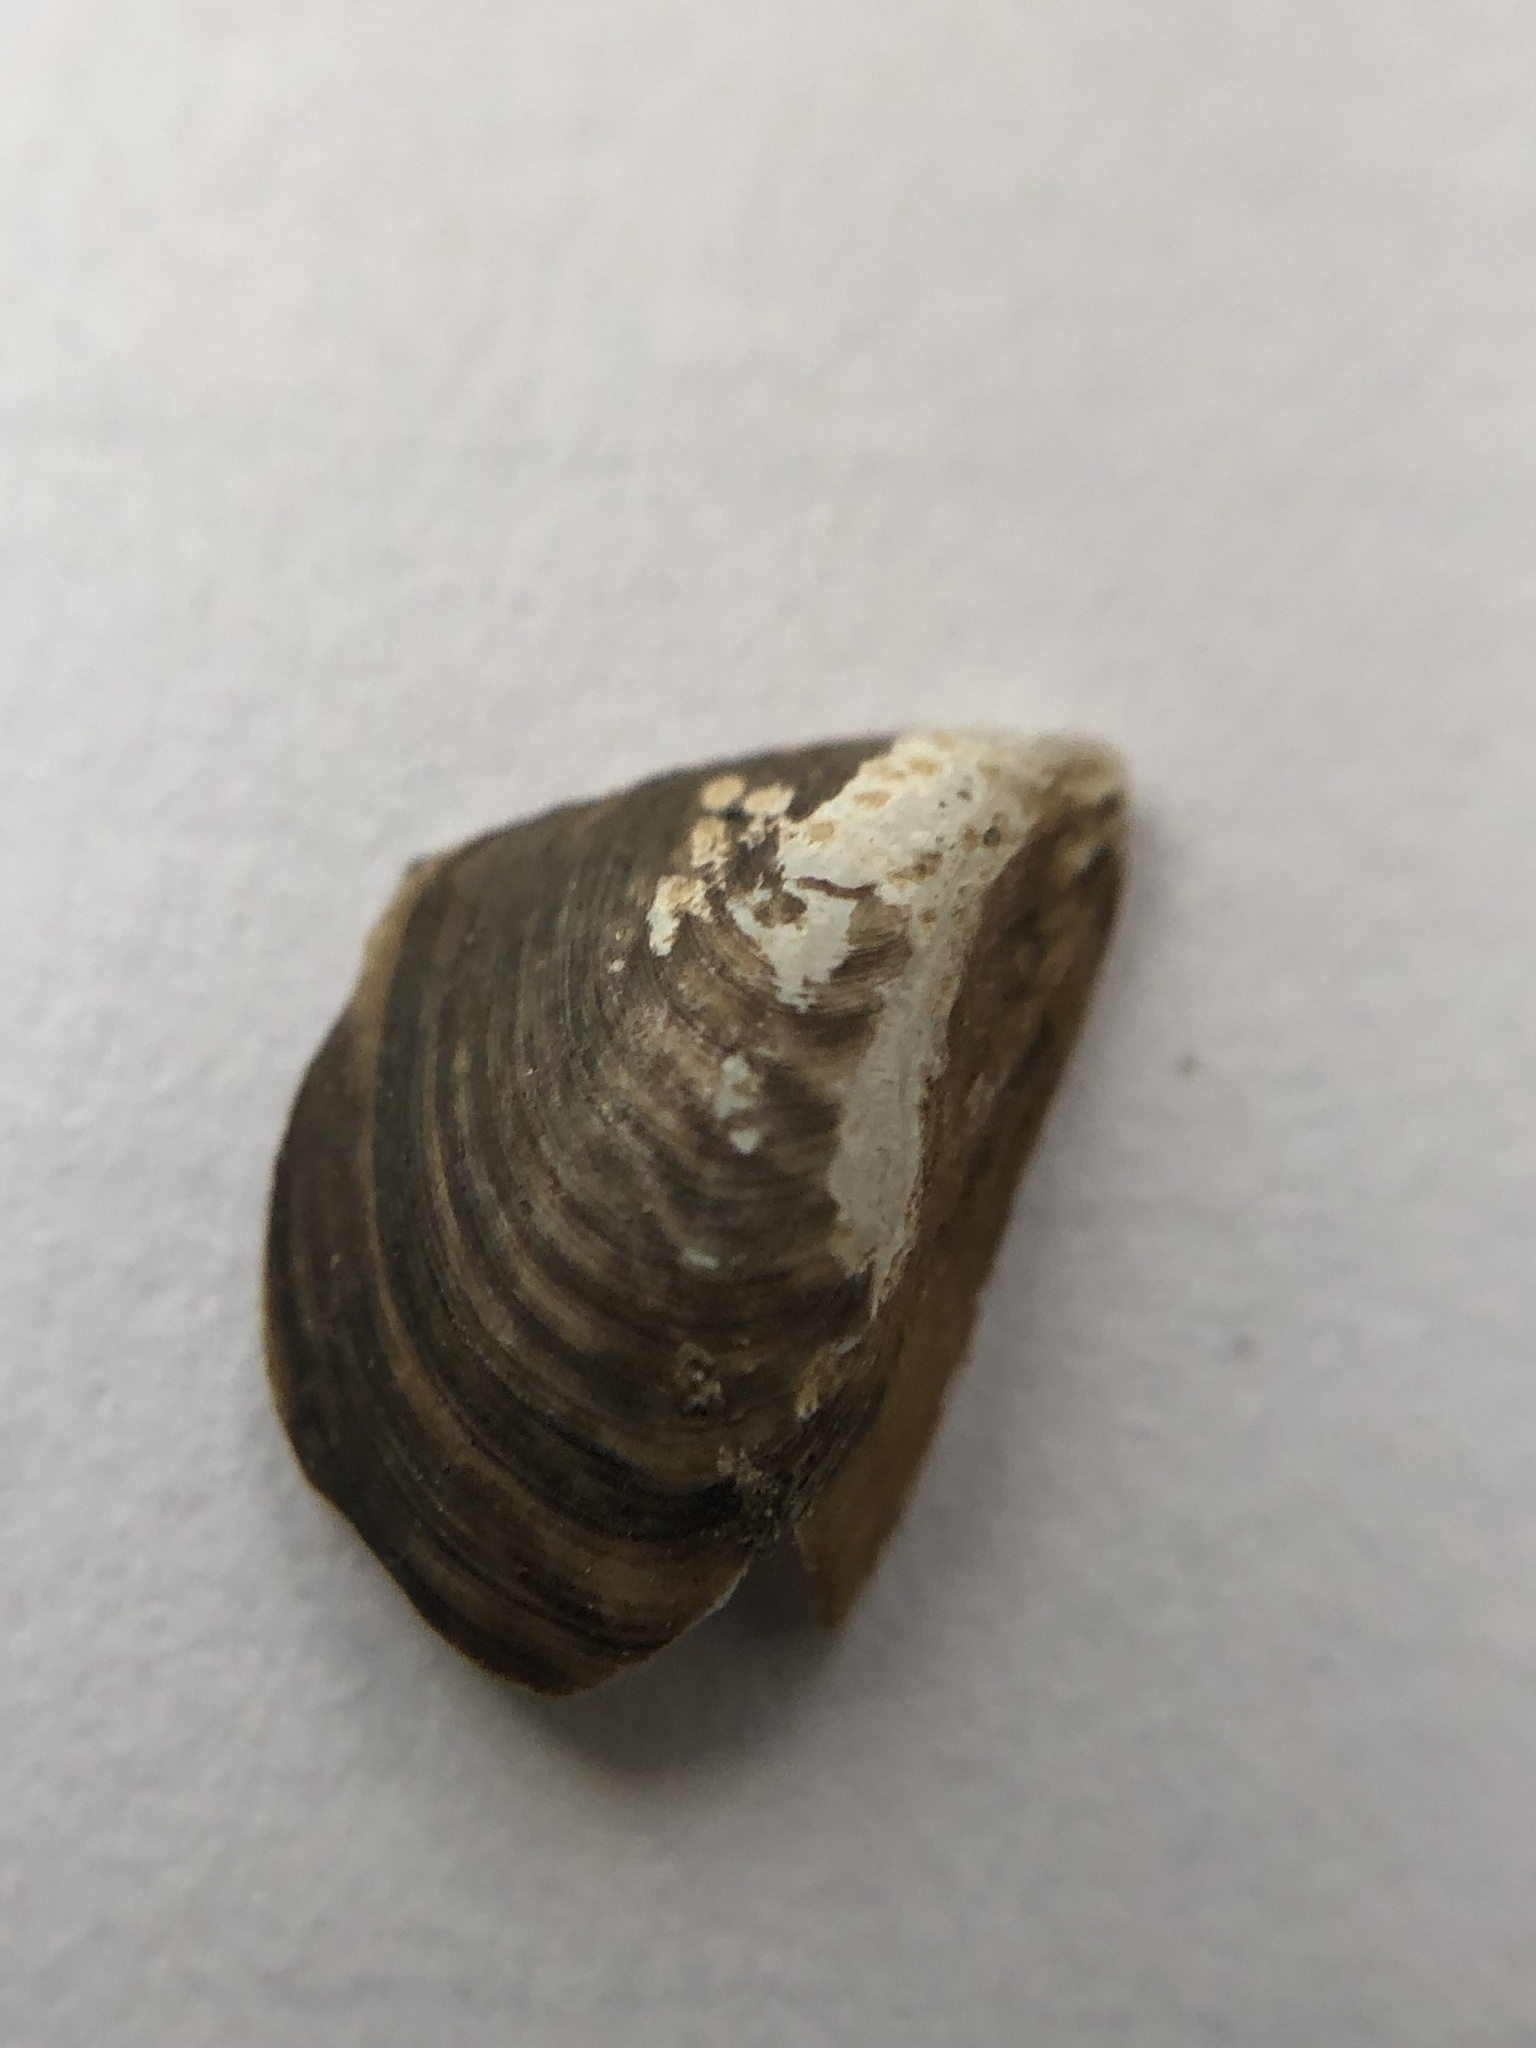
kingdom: Animalia
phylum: Mollusca
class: Bivalvia
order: Myida
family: Dreissenidae
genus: Dreissena
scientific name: Dreissena bugensis
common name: Quagga mussel
